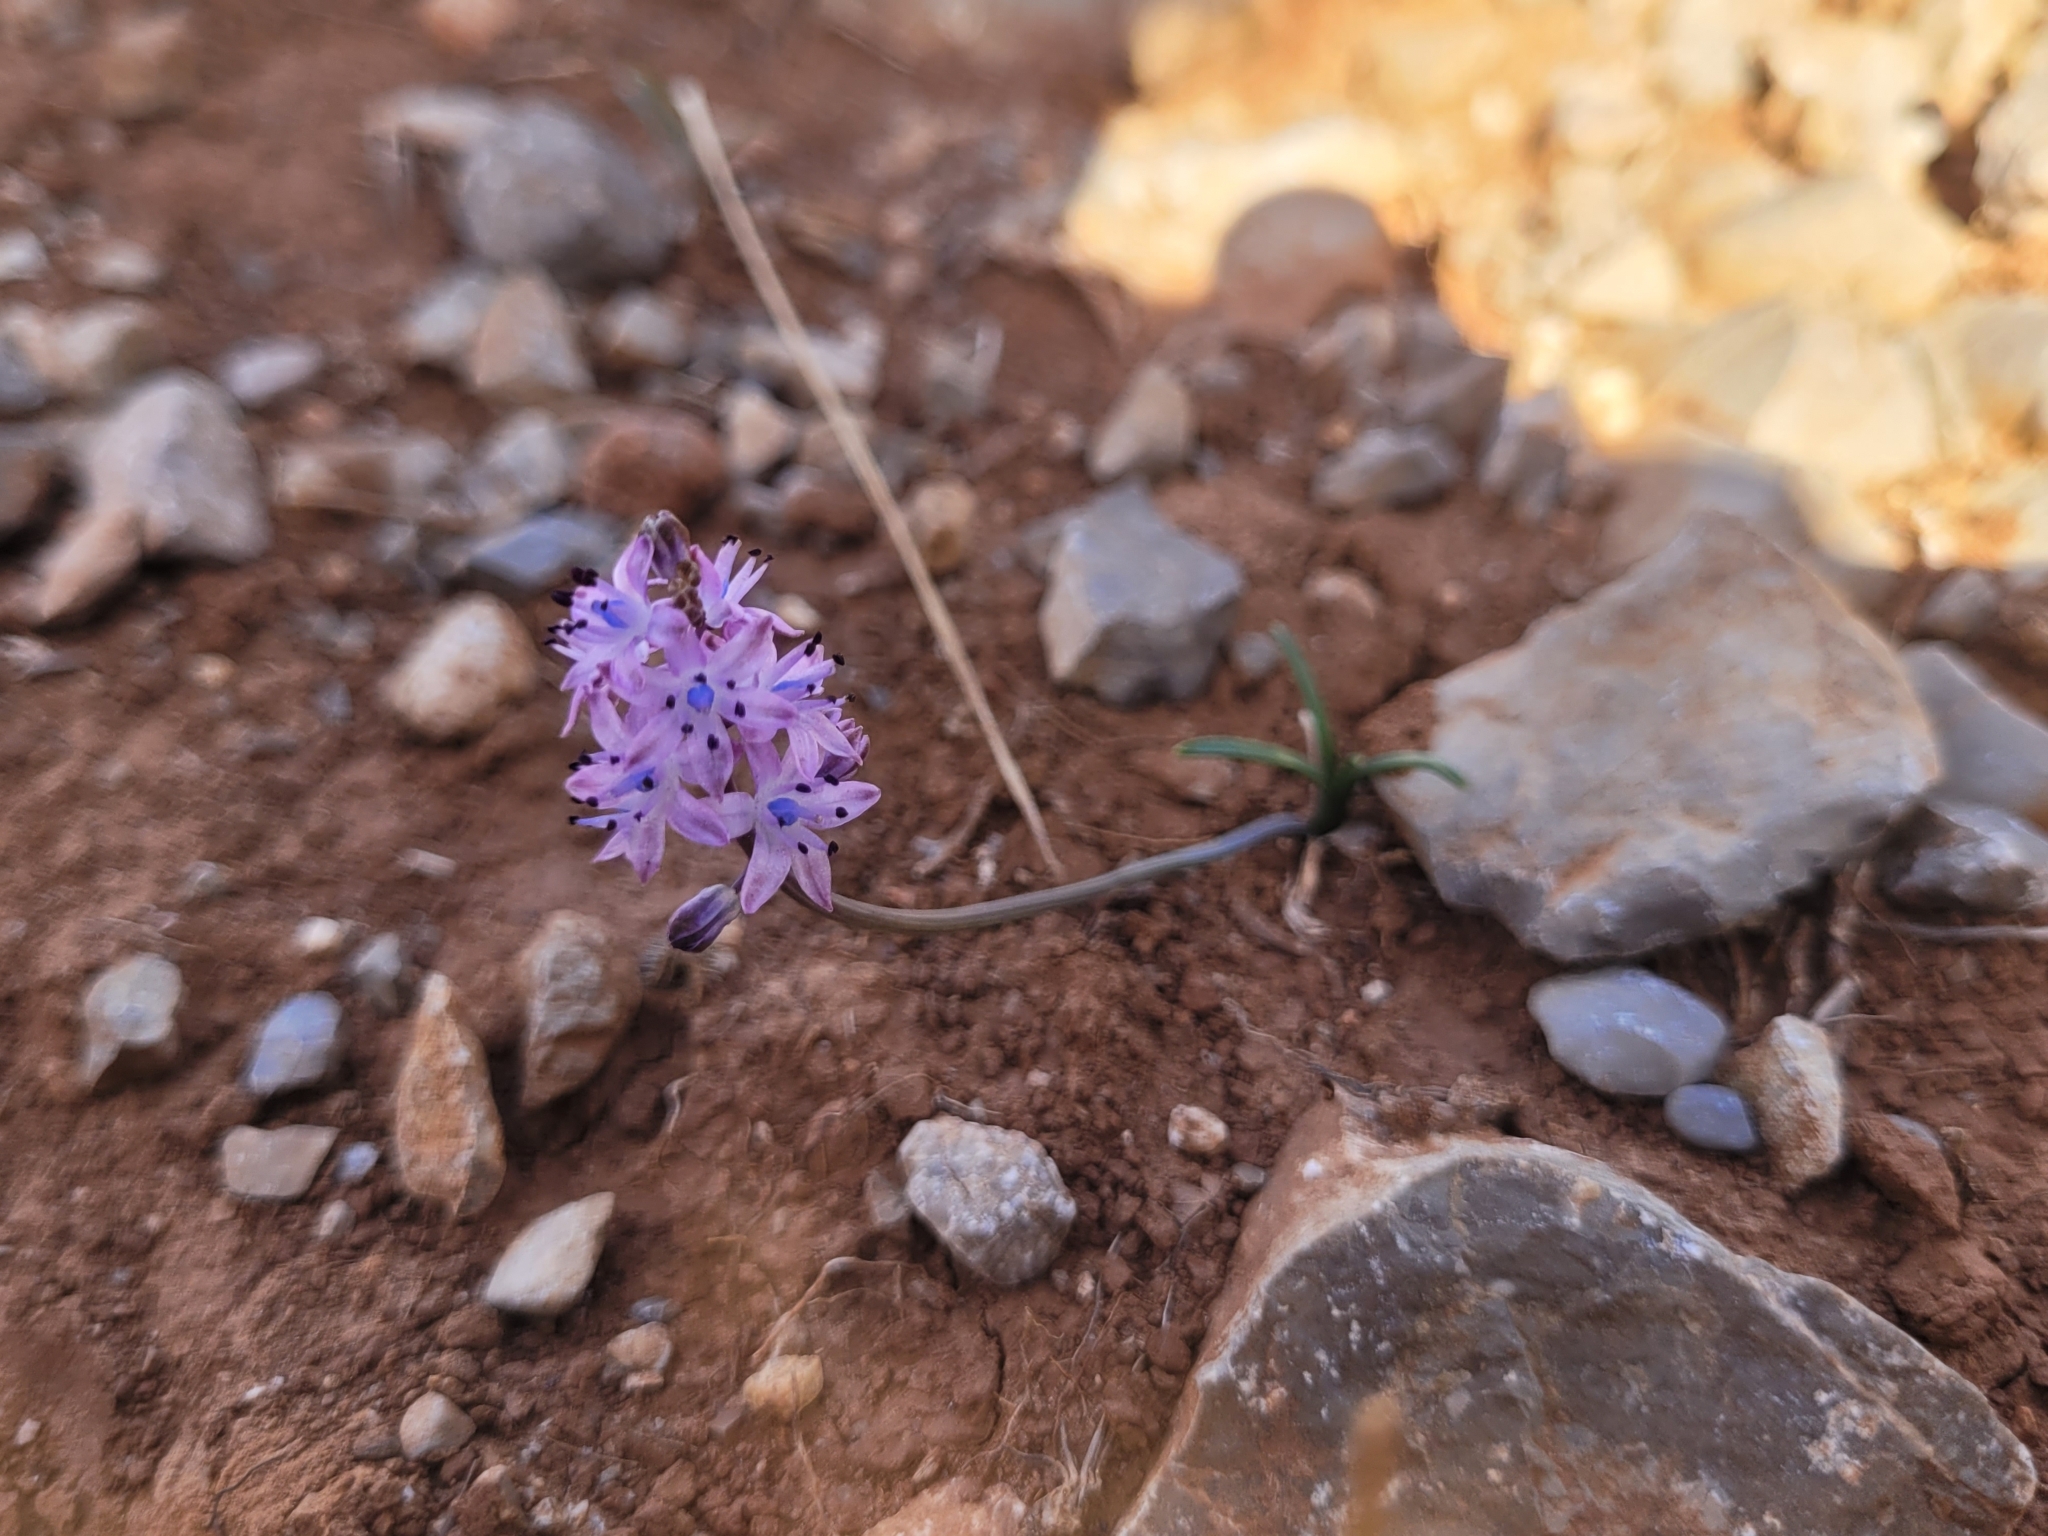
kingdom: Plantae
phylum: Tracheophyta
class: Liliopsida
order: Asparagales
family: Asparagaceae
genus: Prospero
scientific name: Prospero autumnale
